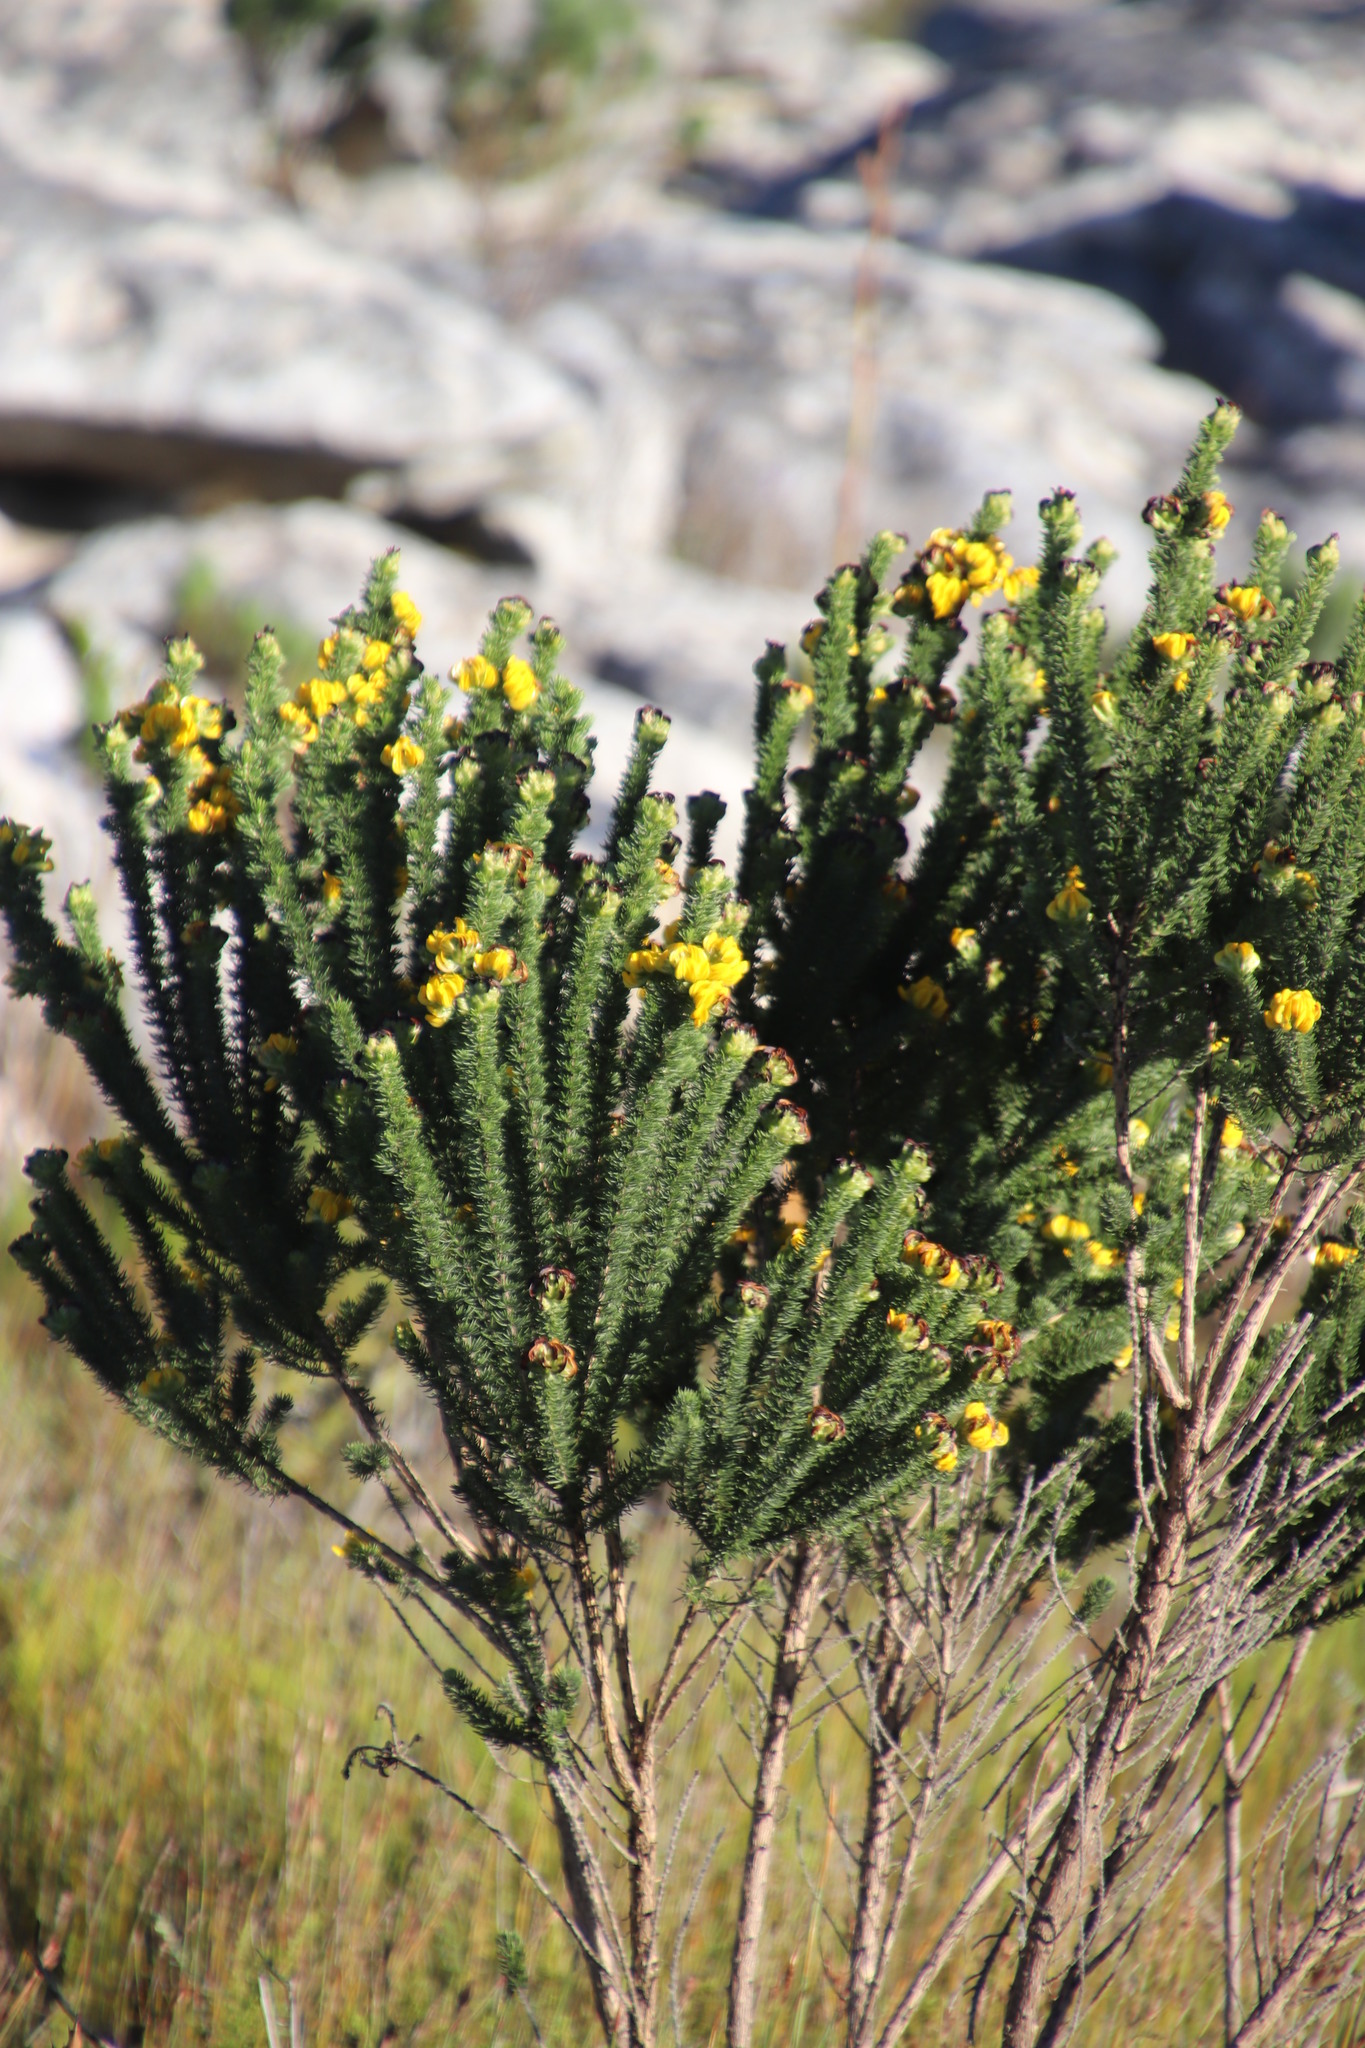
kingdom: Plantae
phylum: Tracheophyta
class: Magnoliopsida
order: Fabales
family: Fabaceae
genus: Aspalathus
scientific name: Aspalathus capitata
